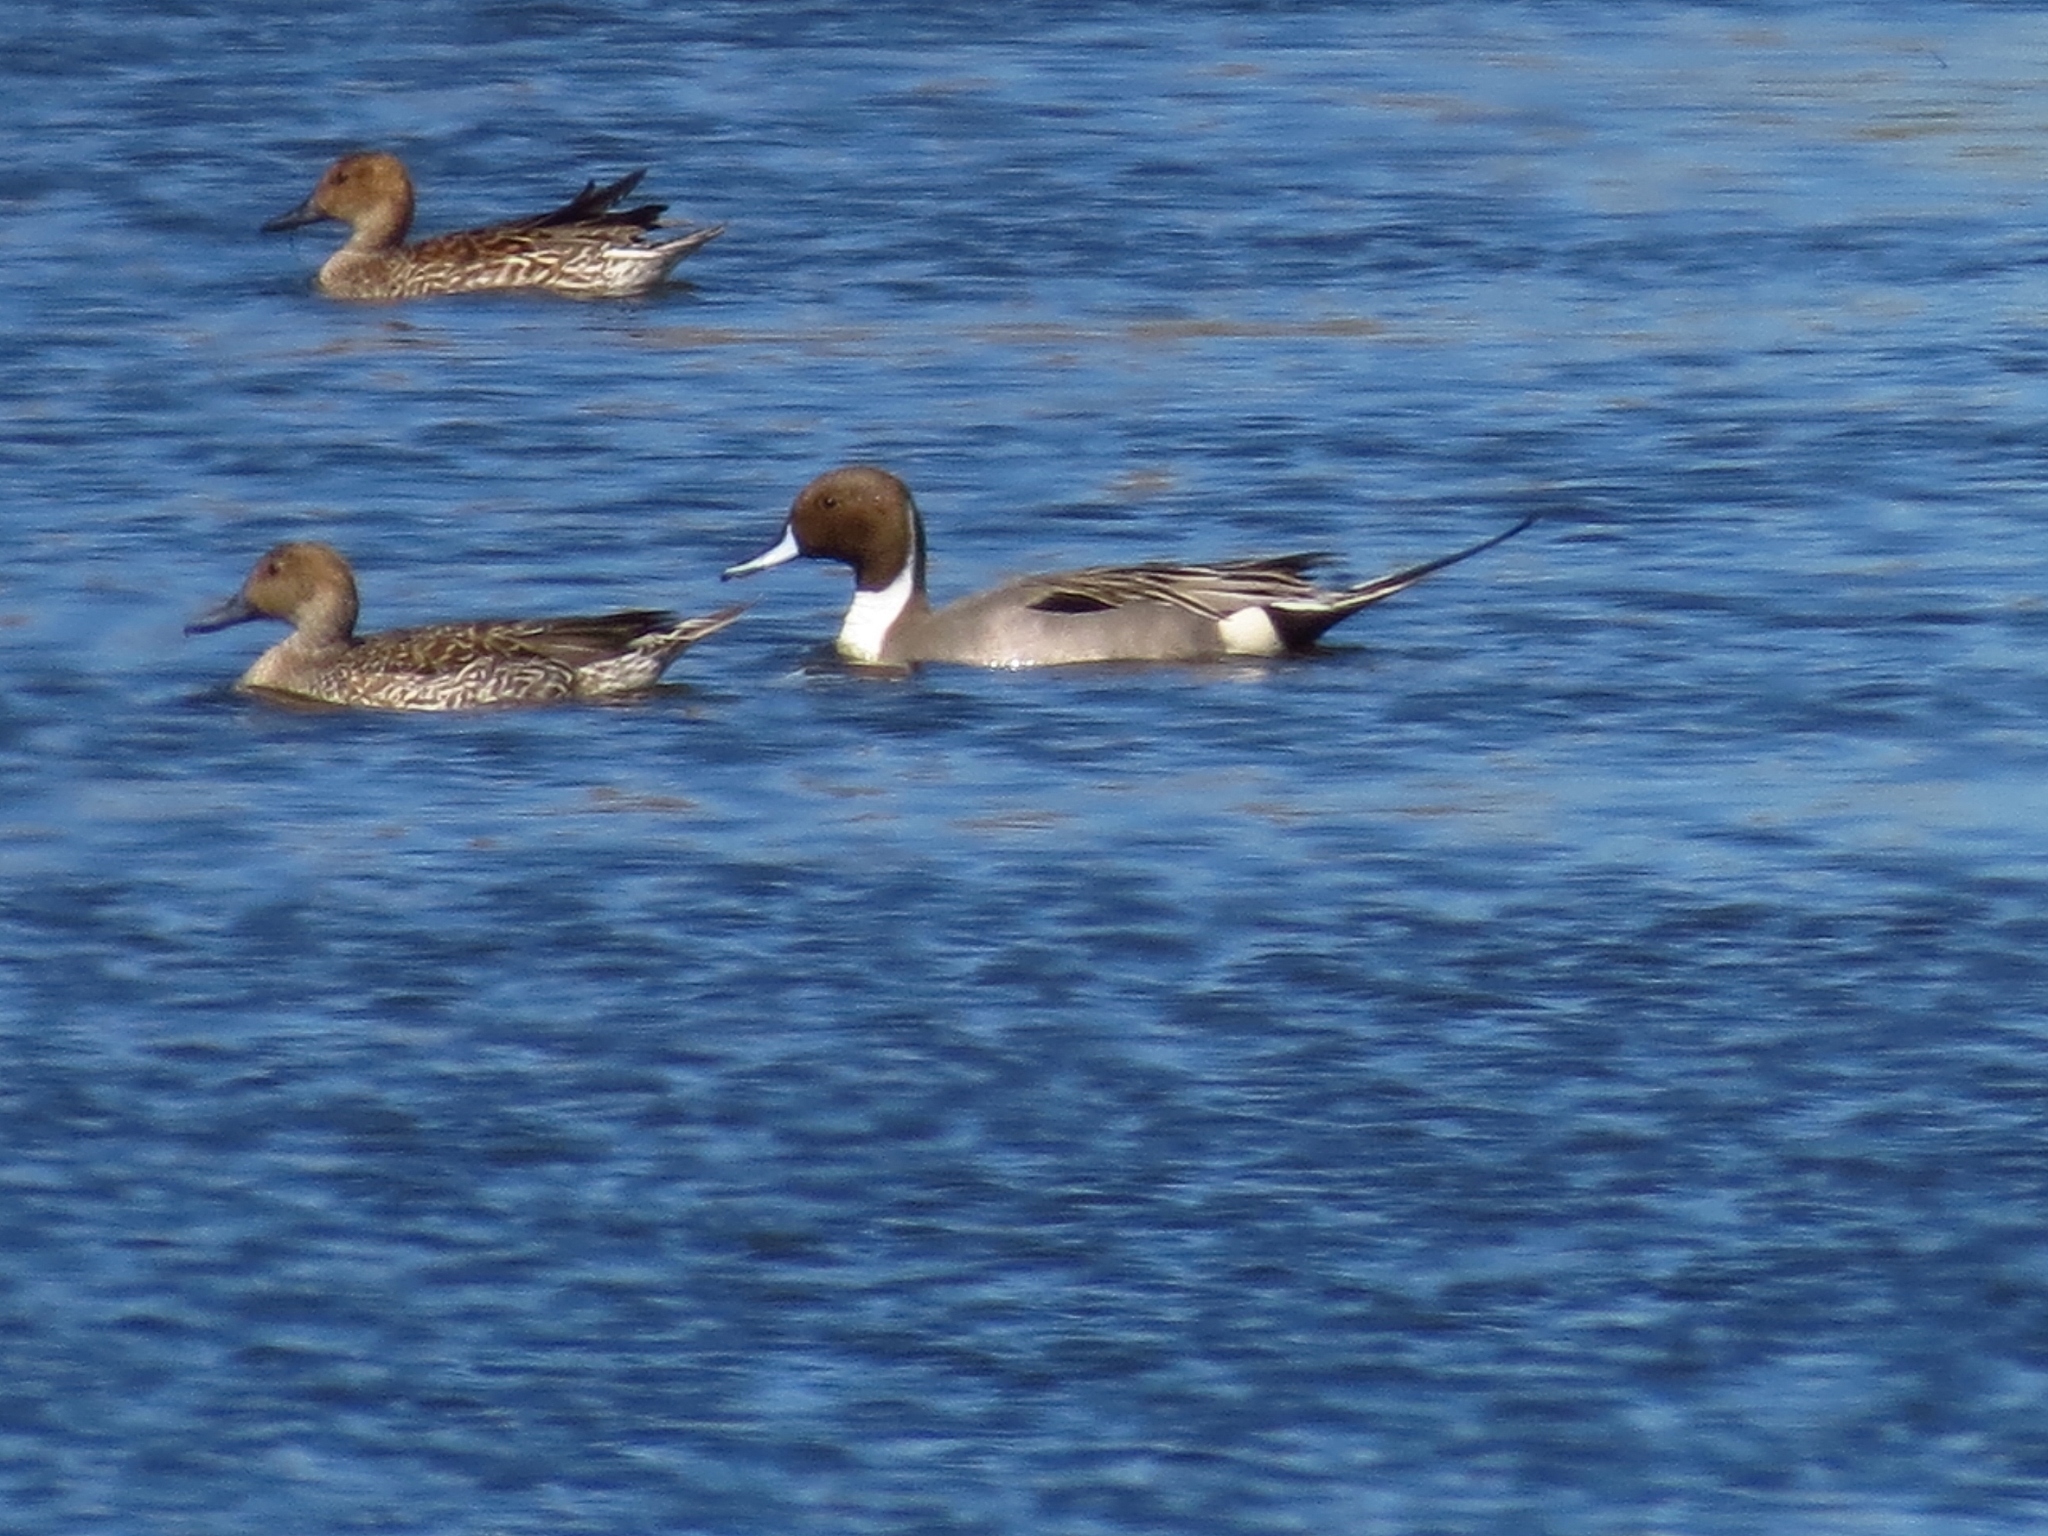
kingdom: Animalia
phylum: Chordata
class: Aves
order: Anseriformes
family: Anatidae
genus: Anas
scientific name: Anas acuta
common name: Northern pintail
